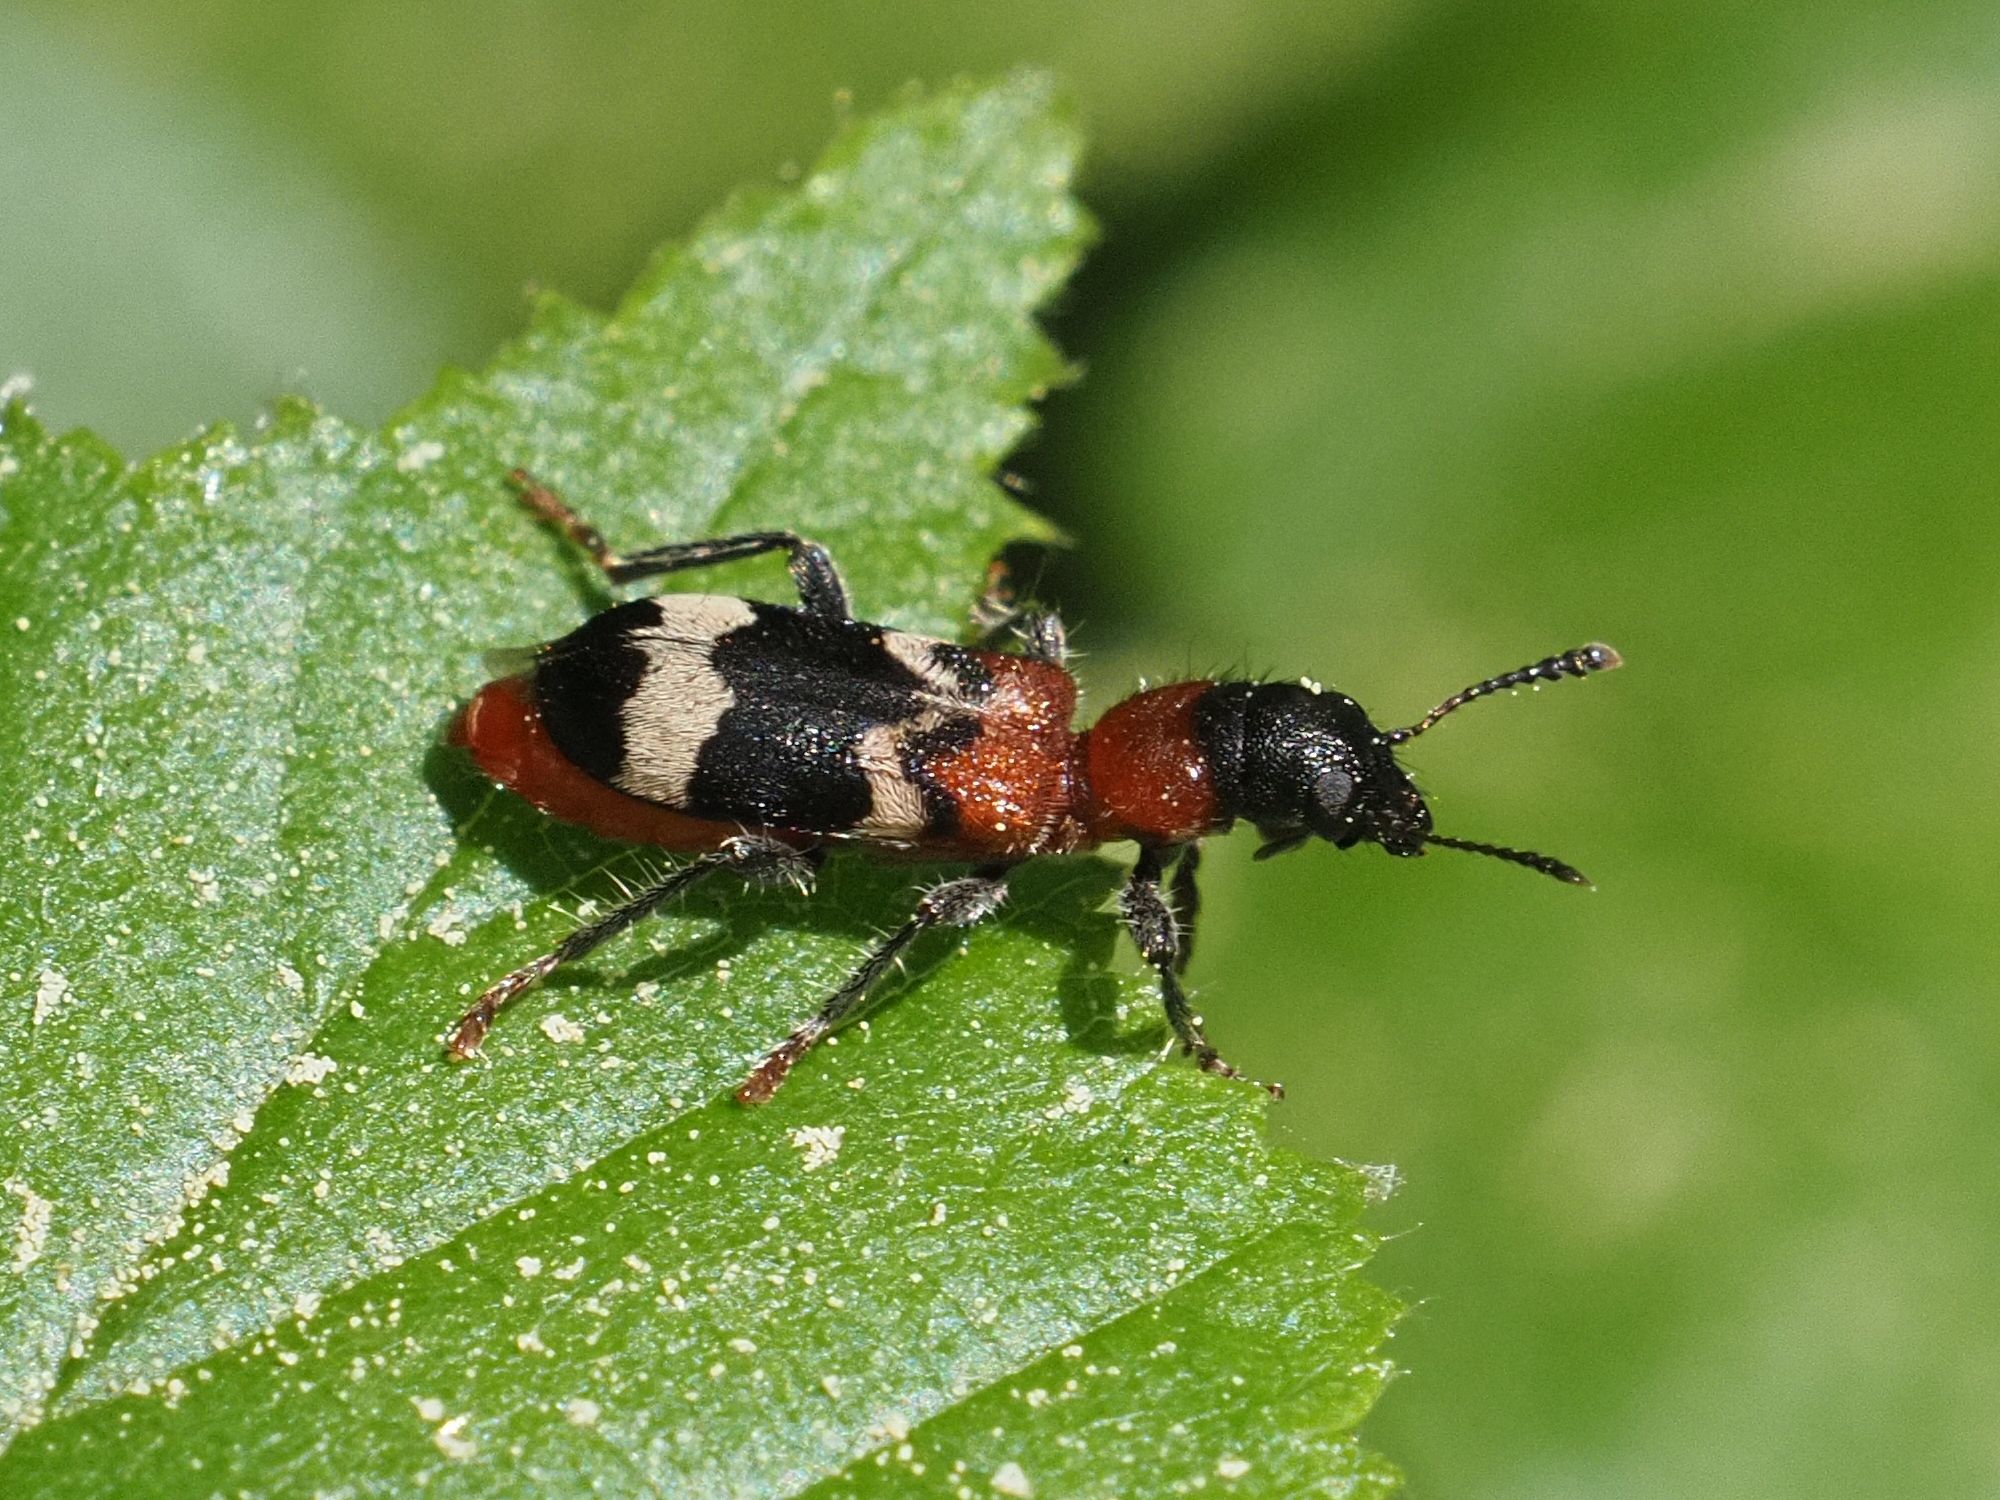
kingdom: Animalia
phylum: Arthropoda
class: Insecta
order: Coleoptera
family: Cleridae
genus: Thanasimus
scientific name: Thanasimus formicarius
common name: Ant beetle
